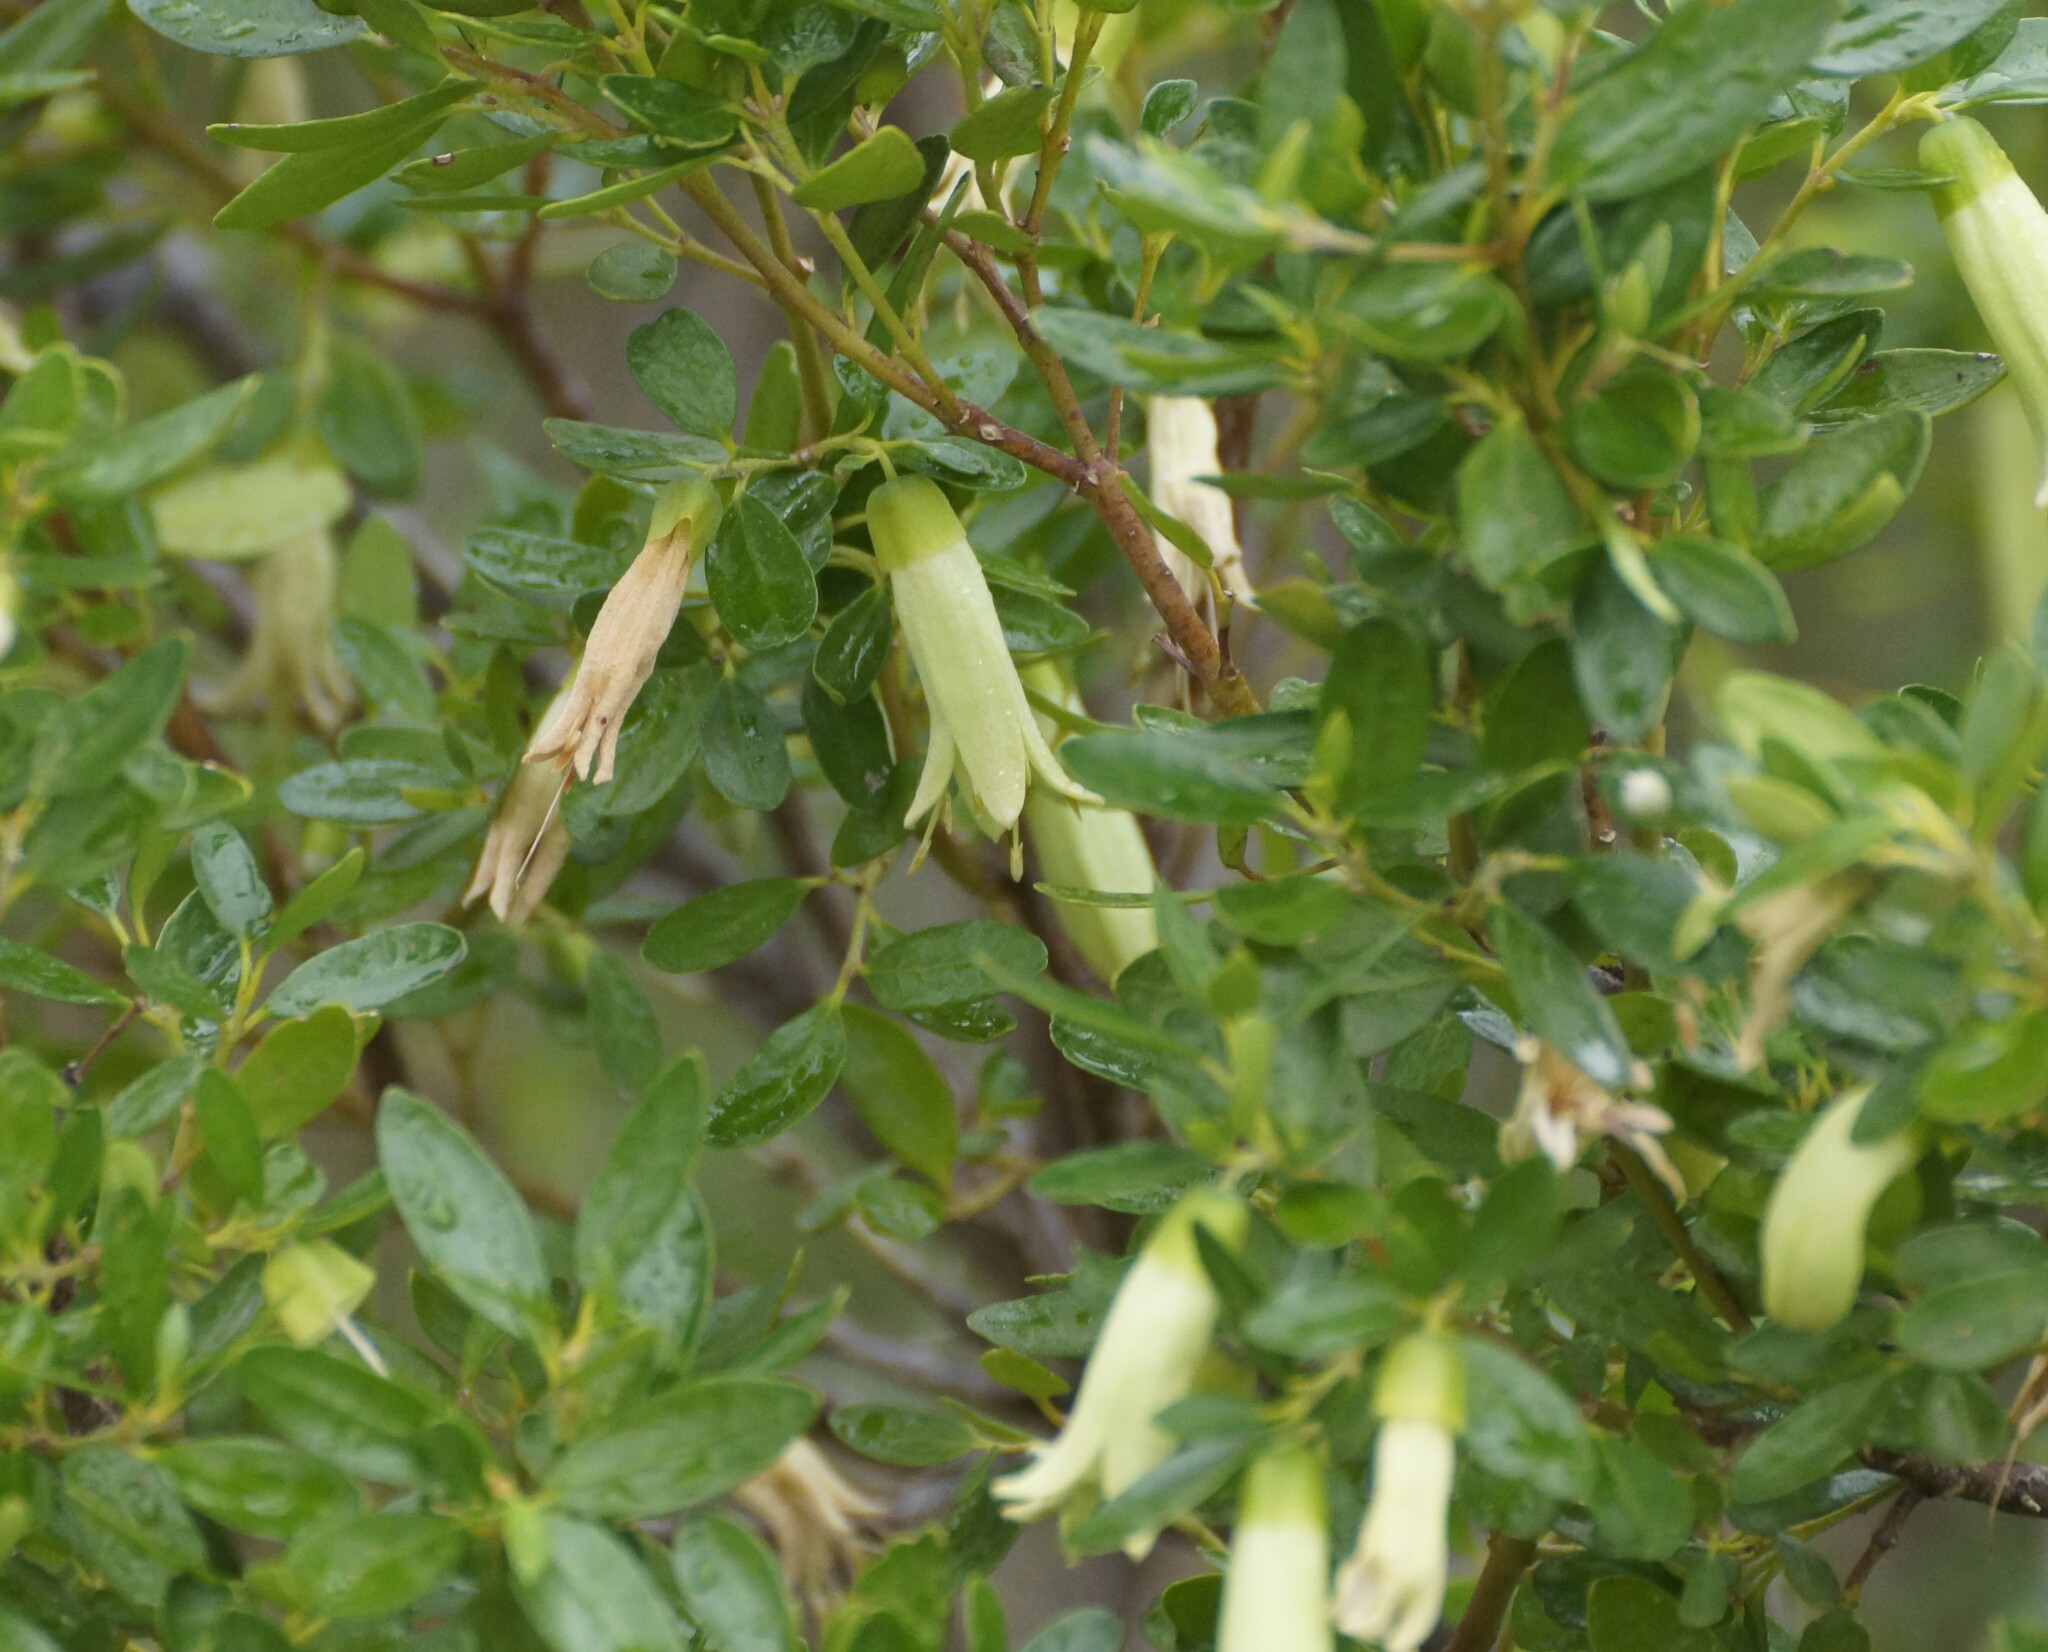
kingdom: Plantae
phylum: Tracheophyta
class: Magnoliopsida
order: Sapindales
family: Rutaceae
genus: Correa
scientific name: Correa glabra
